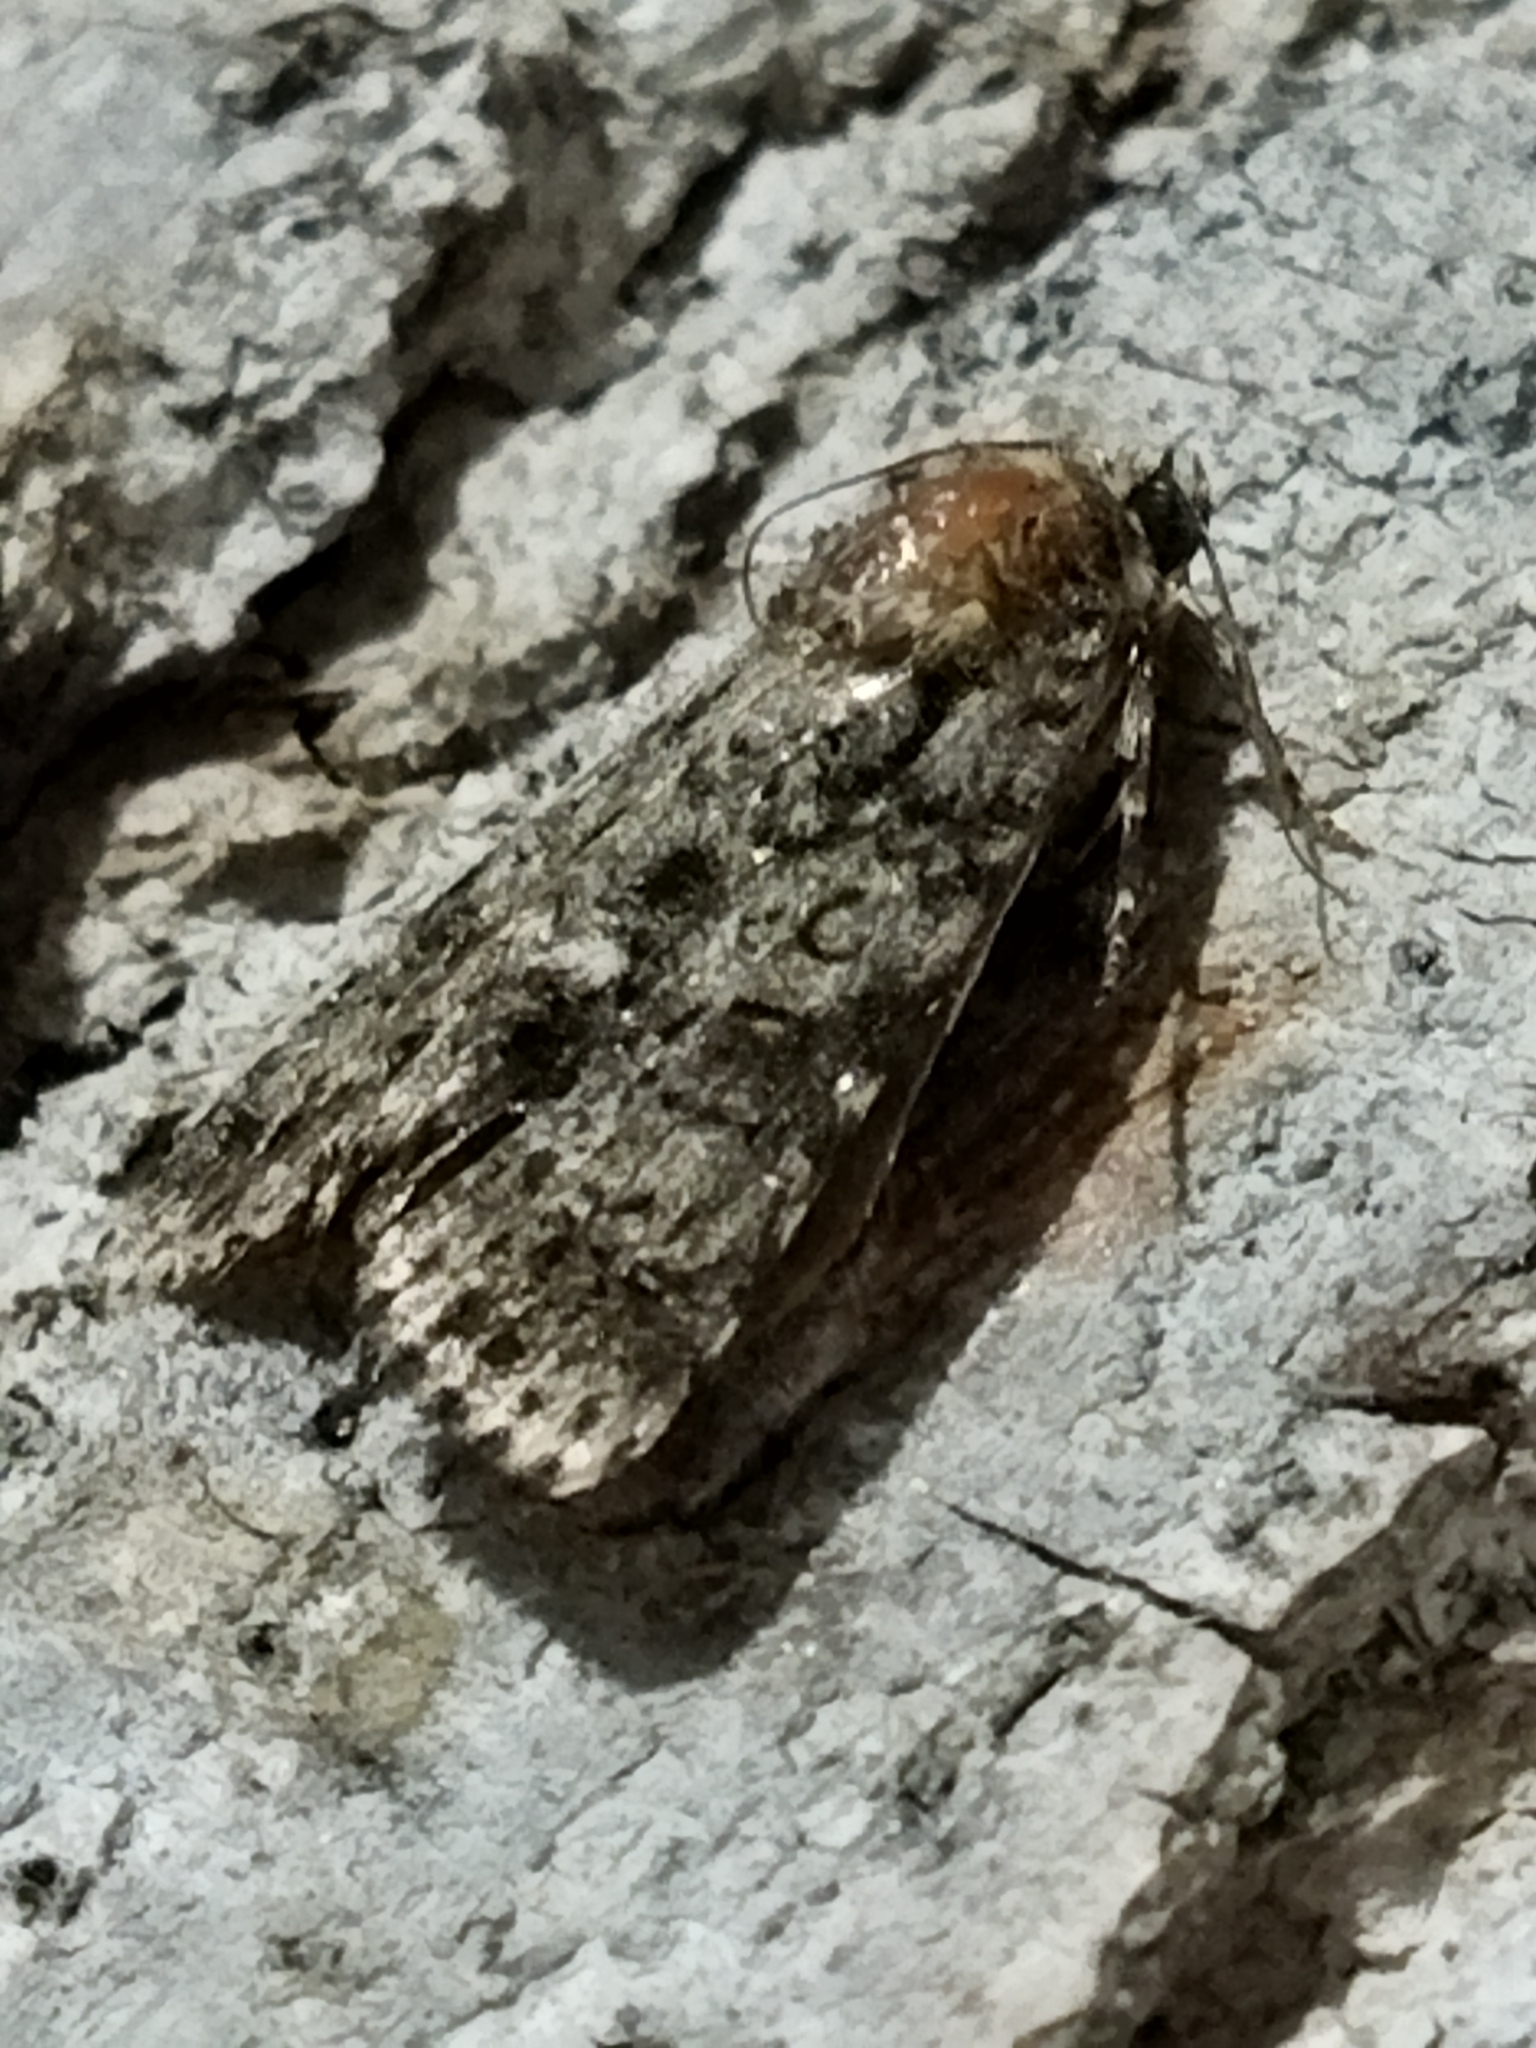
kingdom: Animalia
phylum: Arthropoda
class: Insecta
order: Lepidoptera
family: Noctuidae
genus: Acronicta
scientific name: Acronicta rumicis
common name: Knot grass
